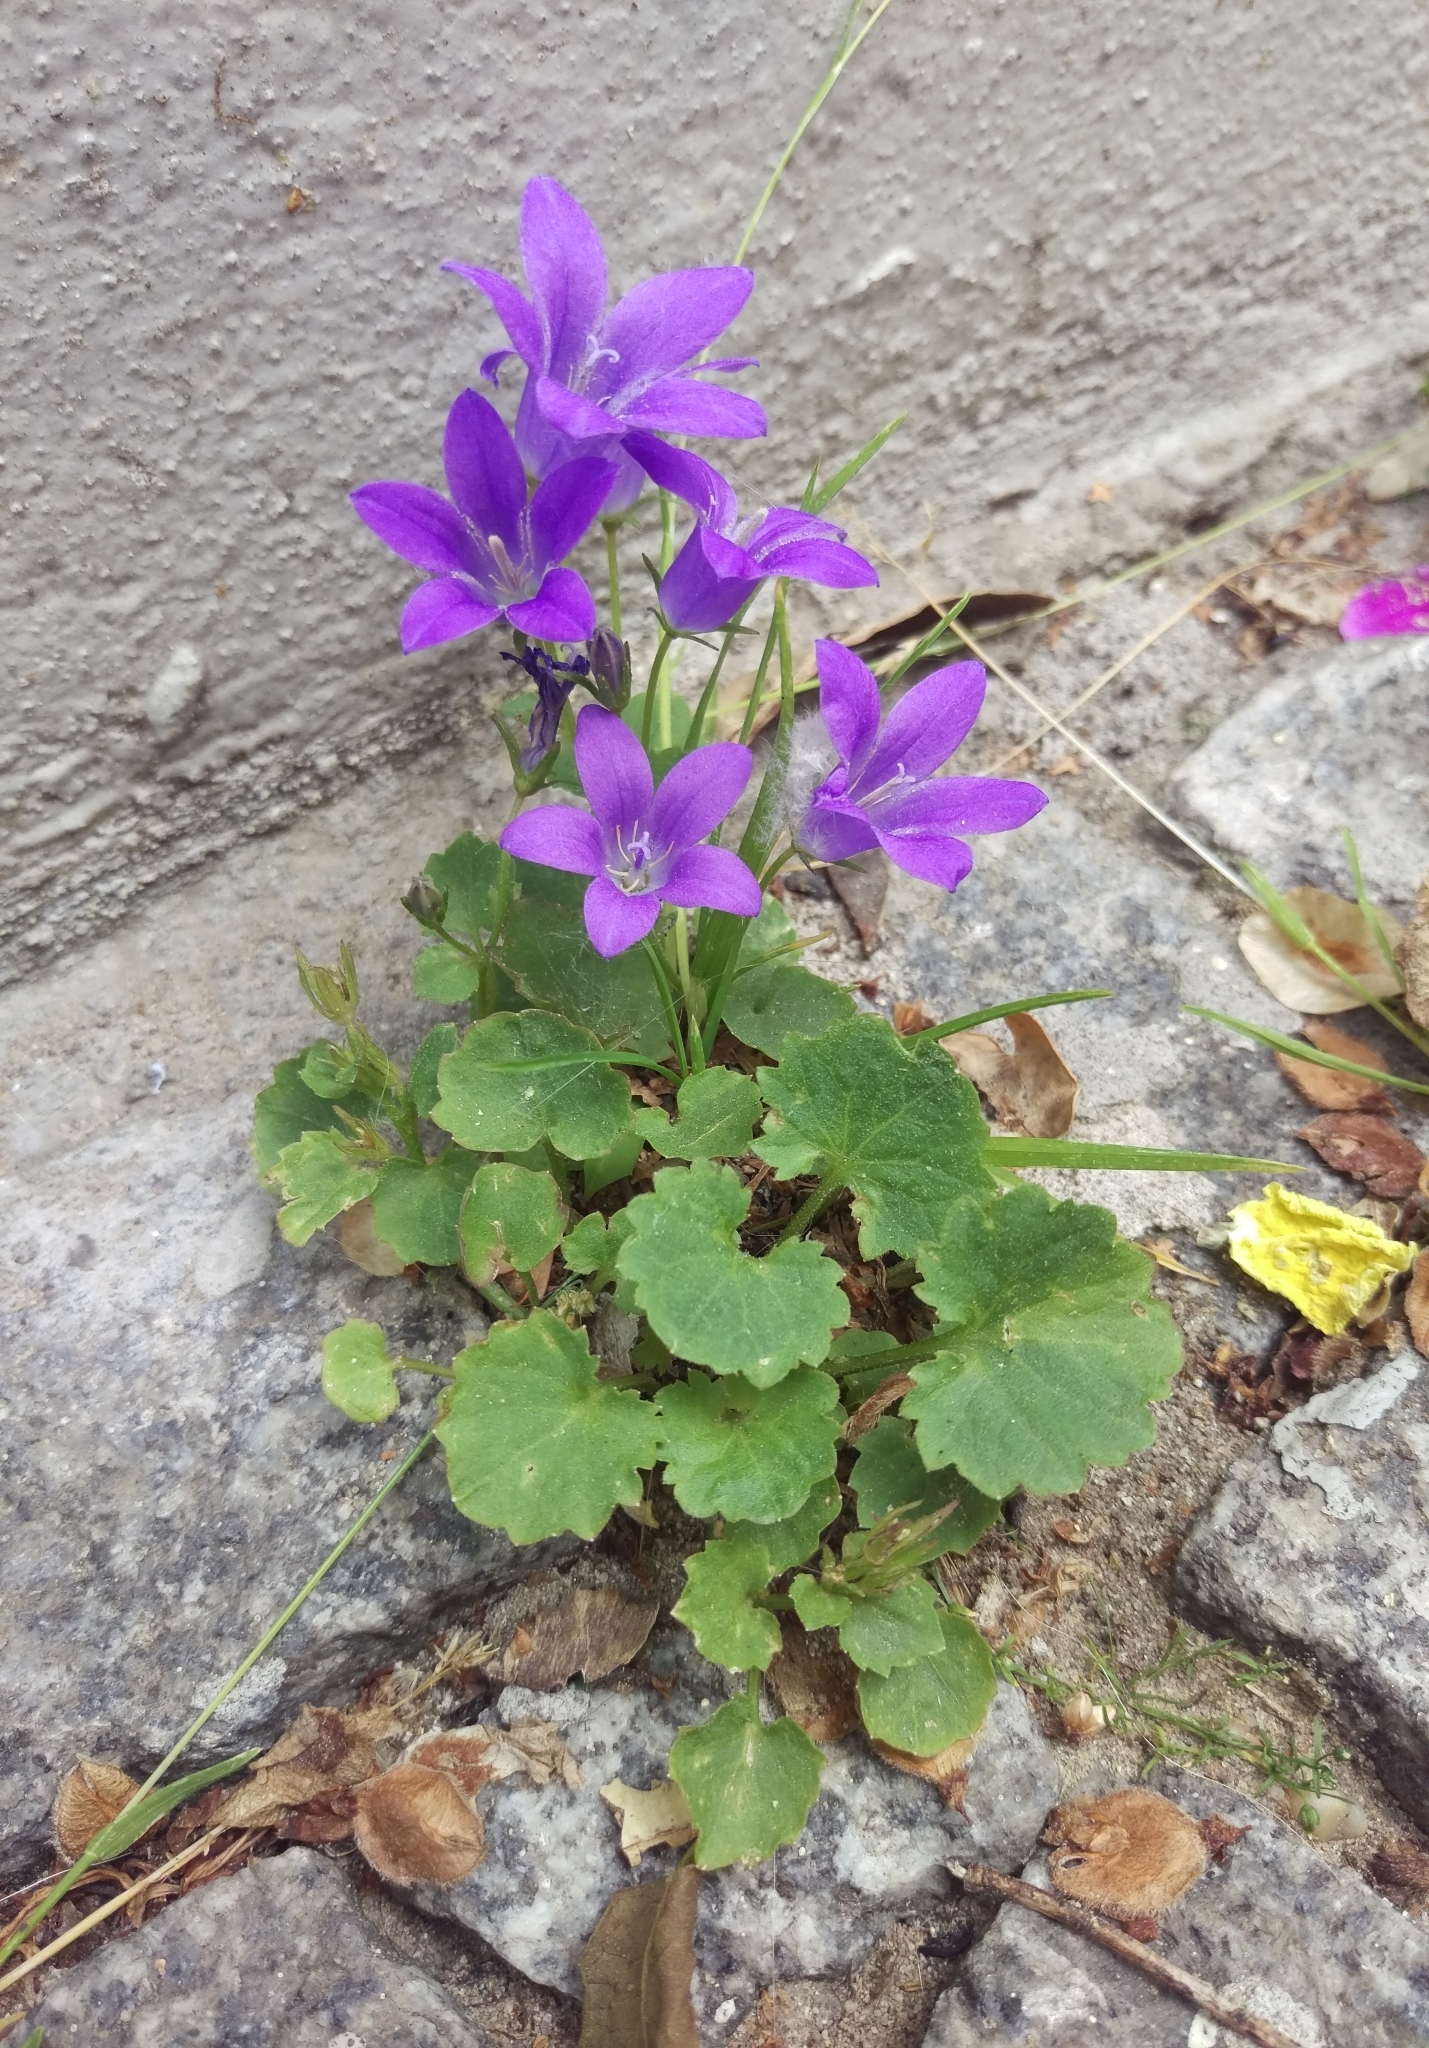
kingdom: Plantae
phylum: Tracheophyta
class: Magnoliopsida
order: Asterales
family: Campanulaceae
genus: Campanula
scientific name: Campanula poscharskyana
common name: Trailing bellflower
